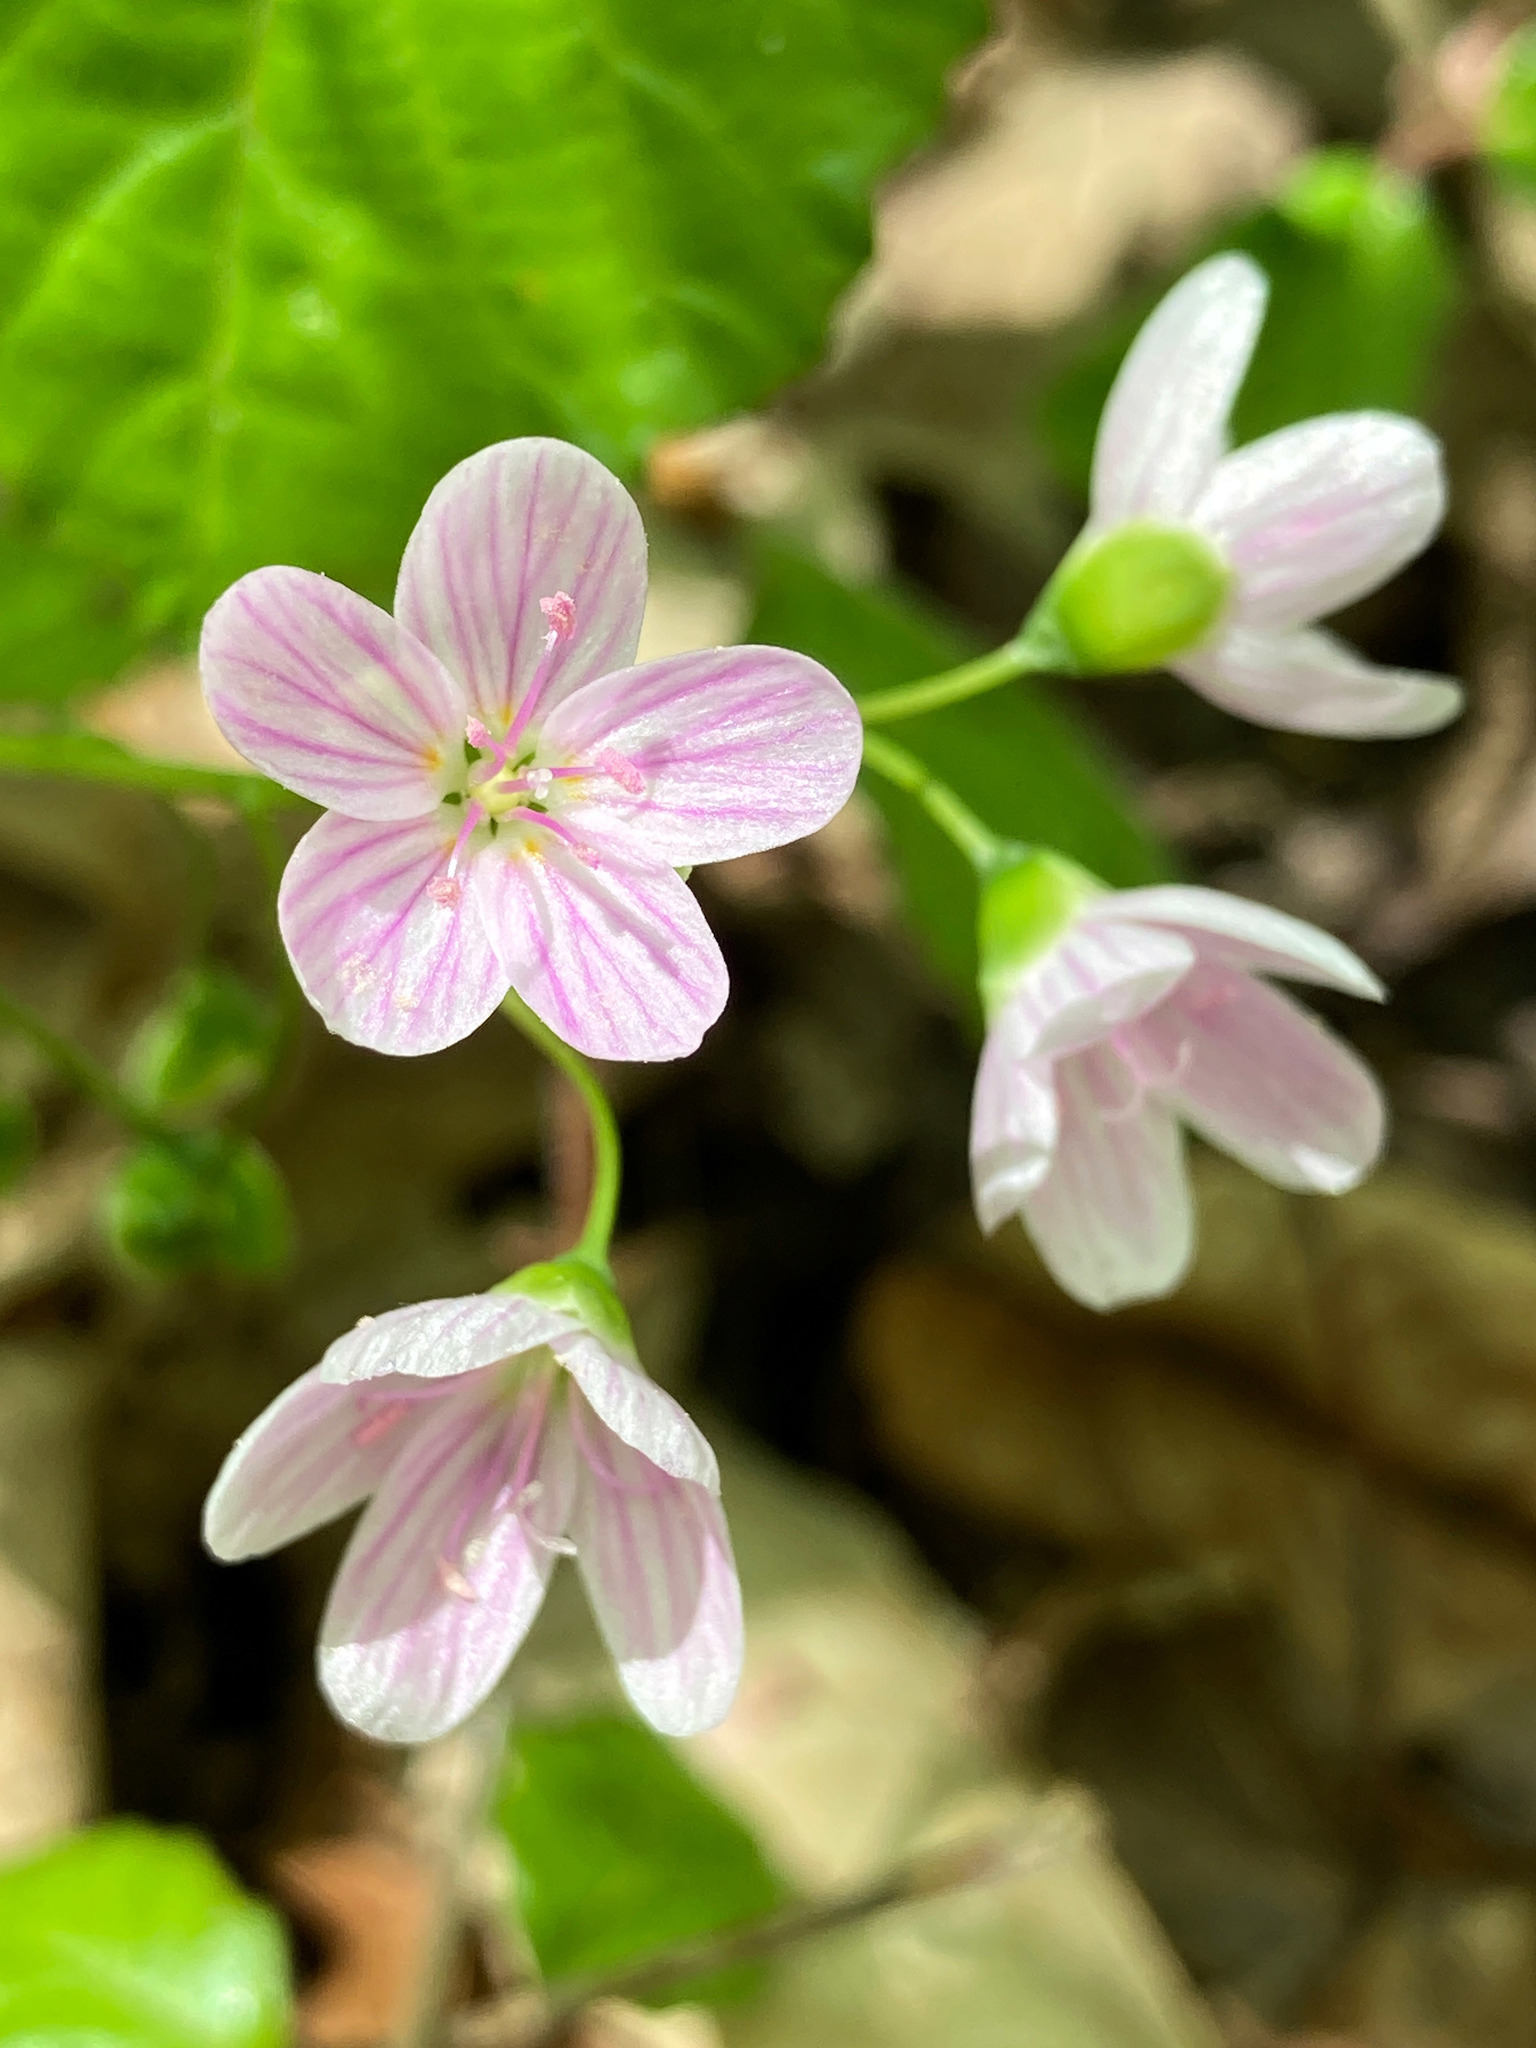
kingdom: Plantae
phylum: Tracheophyta
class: Magnoliopsida
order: Caryophyllales
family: Montiaceae
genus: Claytonia
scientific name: Claytonia virginica
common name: Virginia springbeauty
